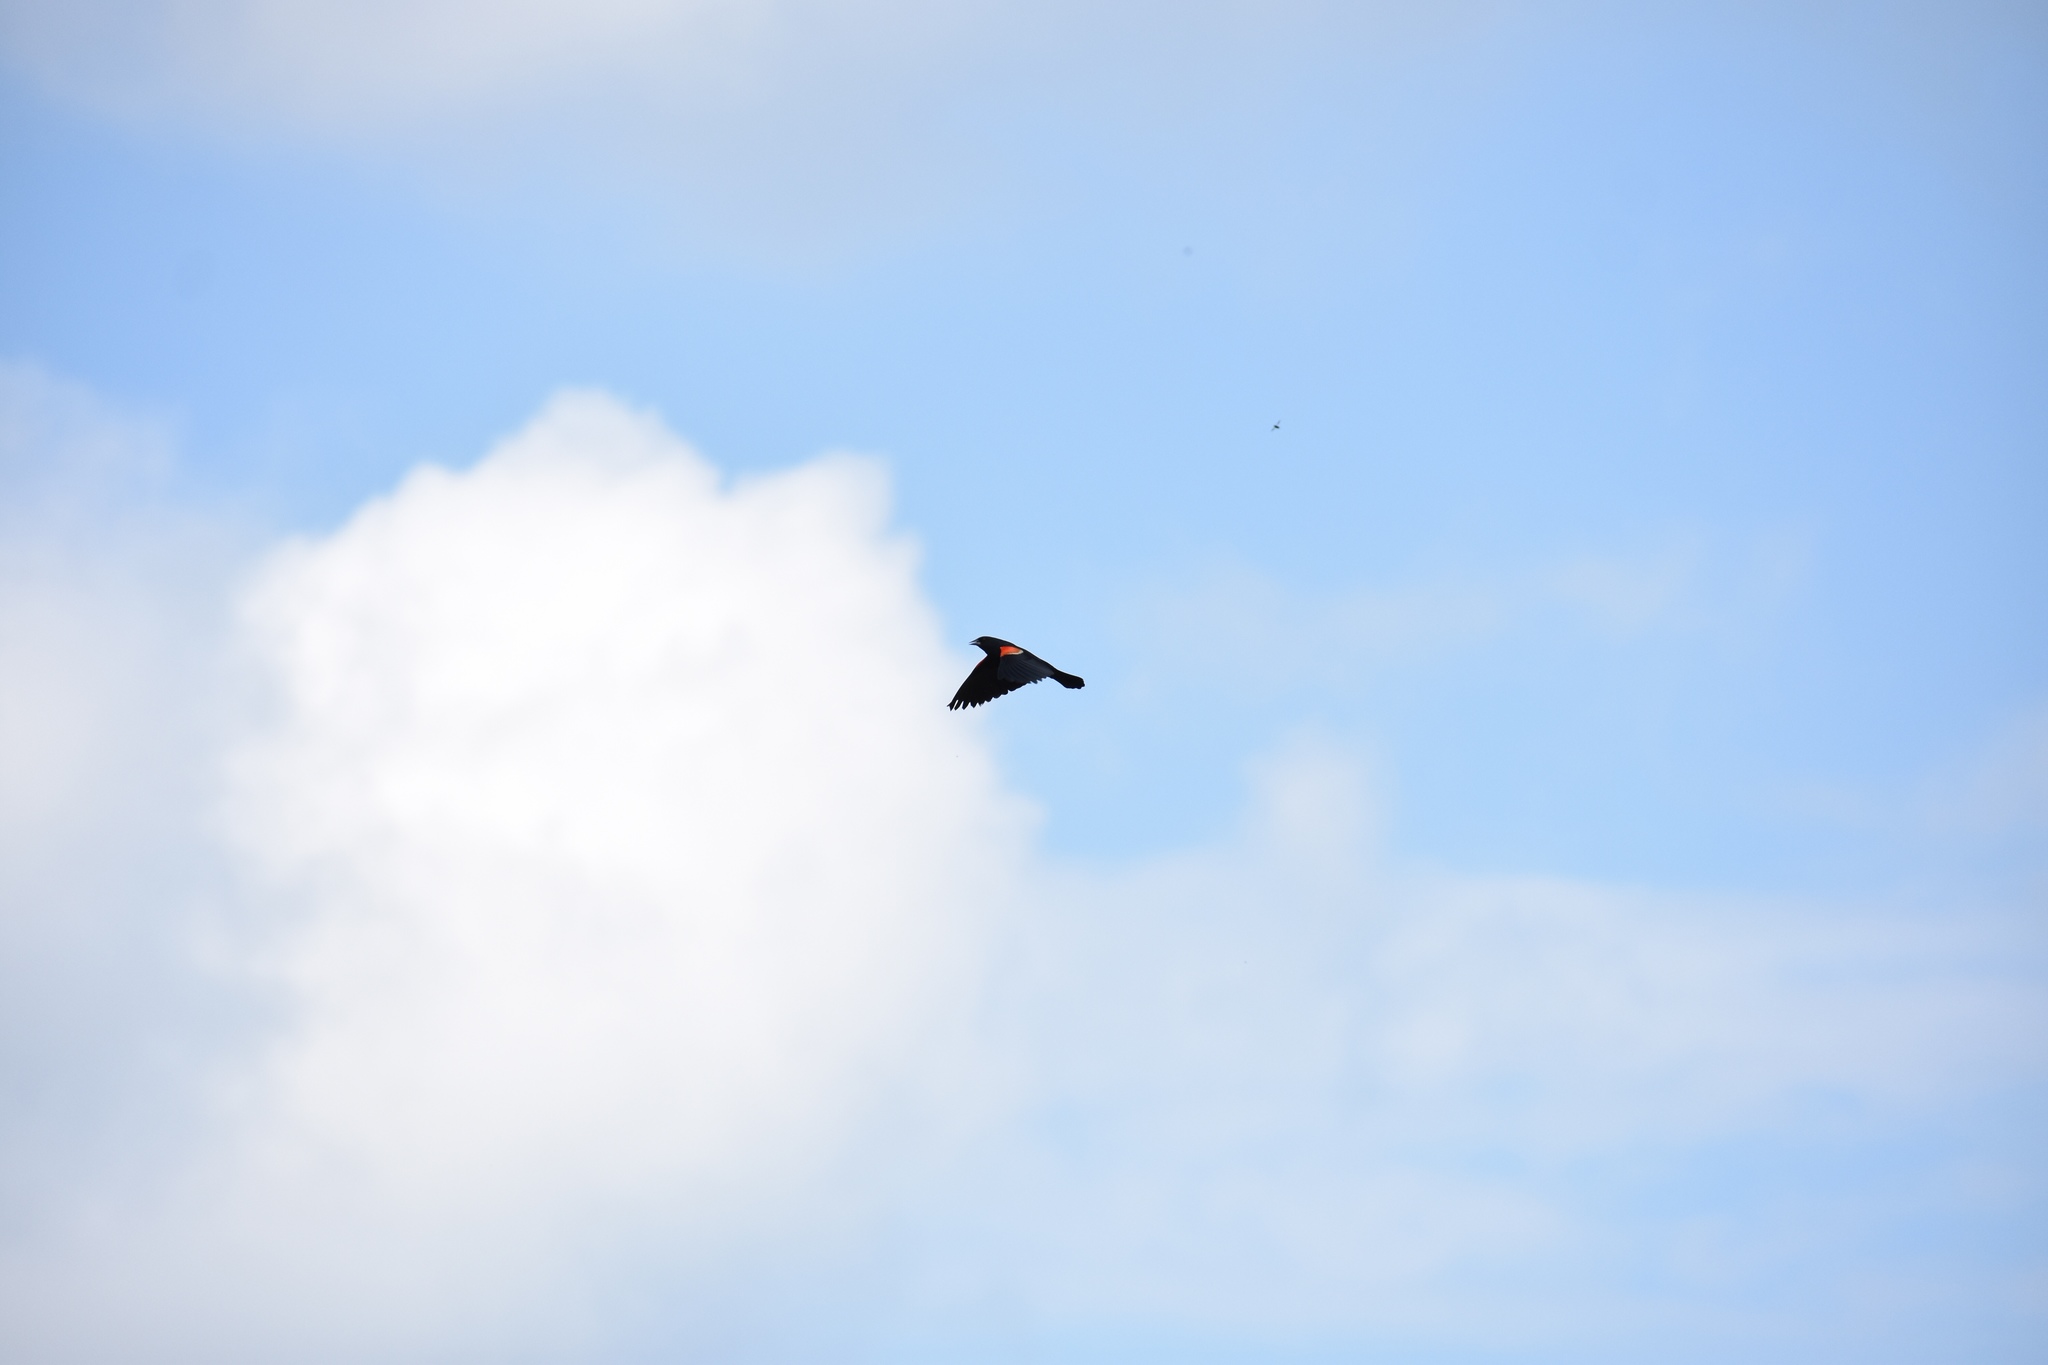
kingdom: Animalia
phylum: Chordata
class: Aves
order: Passeriformes
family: Icteridae
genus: Agelaius
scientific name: Agelaius phoeniceus
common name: Red-winged blackbird
